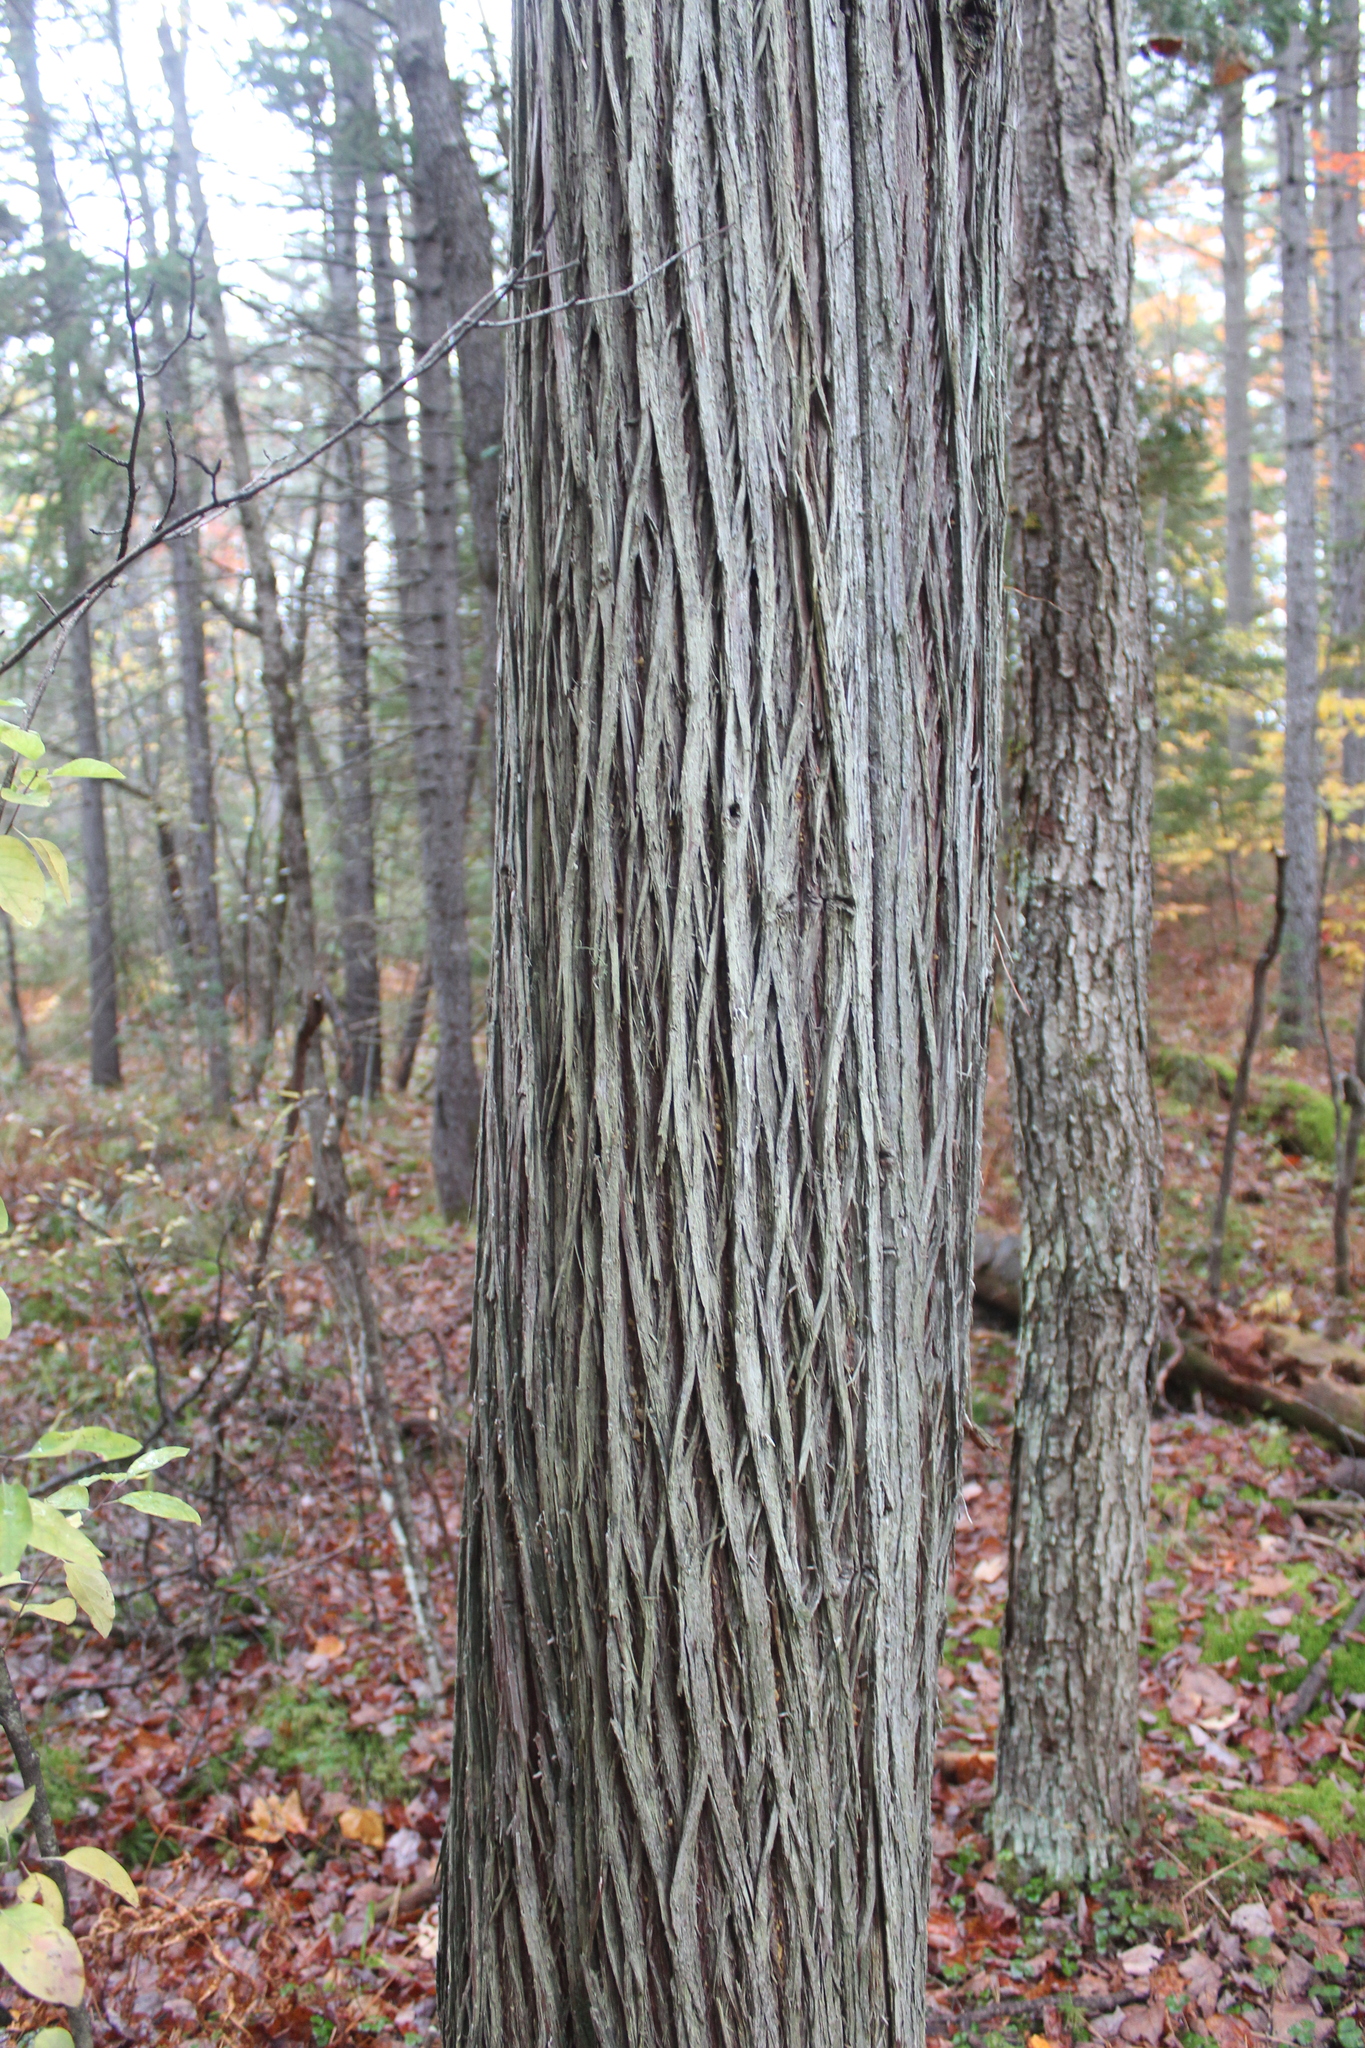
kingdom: Plantae
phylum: Tracheophyta
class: Pinopsida
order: Pinales
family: Cupressaceae
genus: Chamaecyparis
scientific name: Chamaecyparis thyoides
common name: Atlantic white cedar
